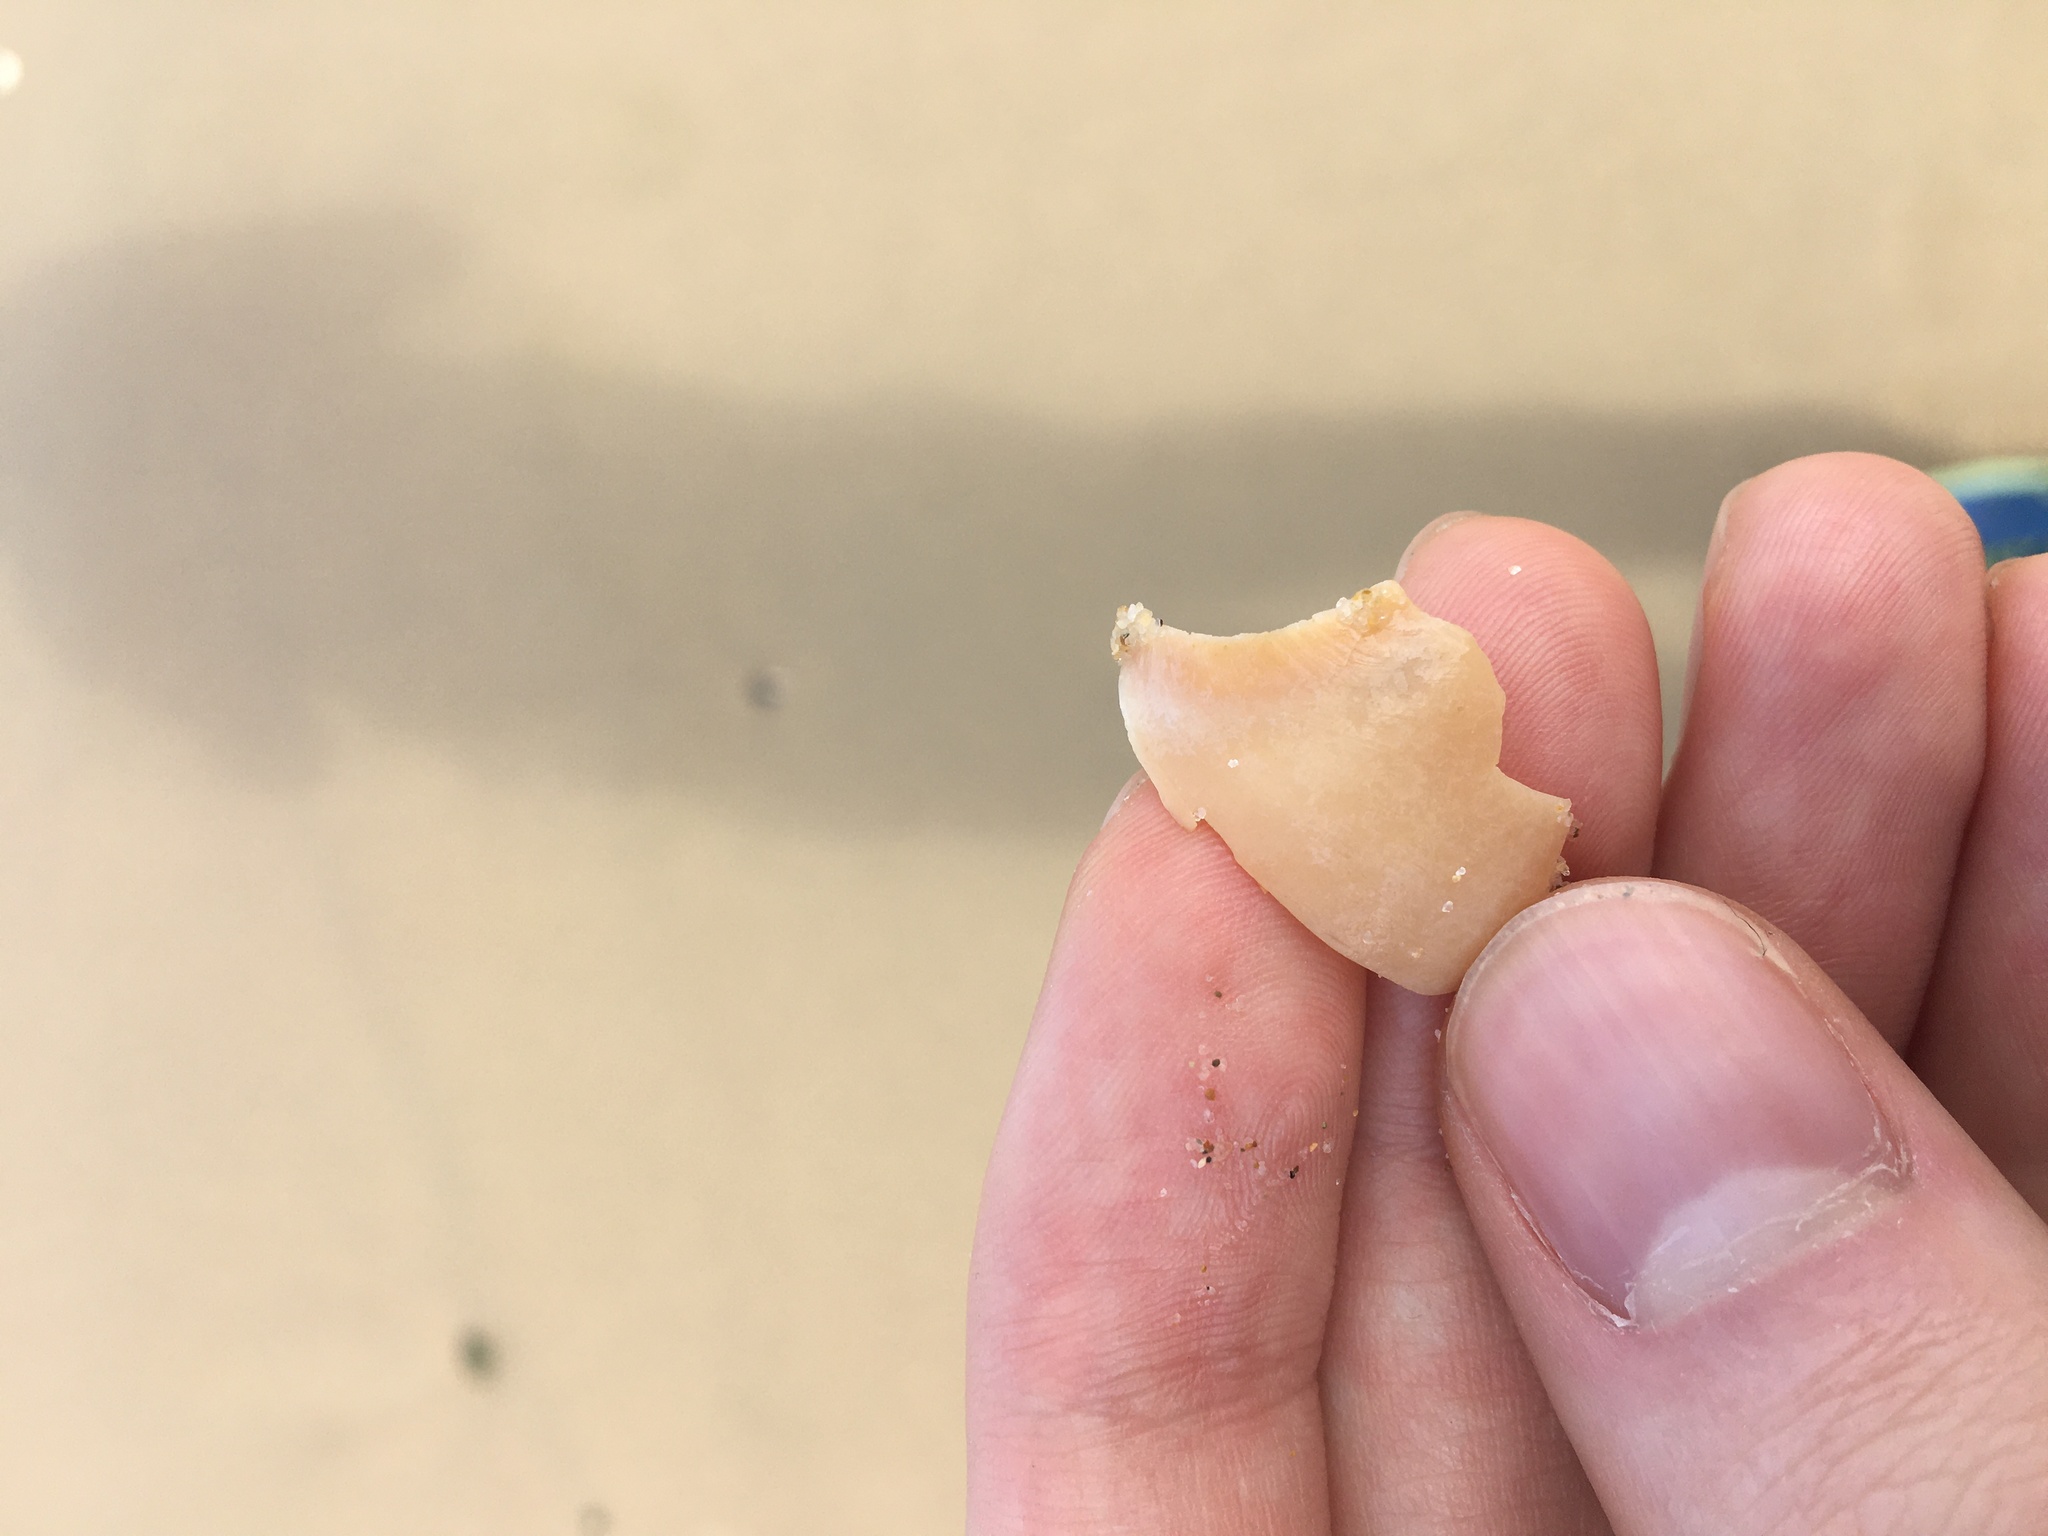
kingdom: Animalia
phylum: Mollusca
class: Gastropoda
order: Littorinimorpha
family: Naticidae
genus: Neverita
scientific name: Neverita didyma
